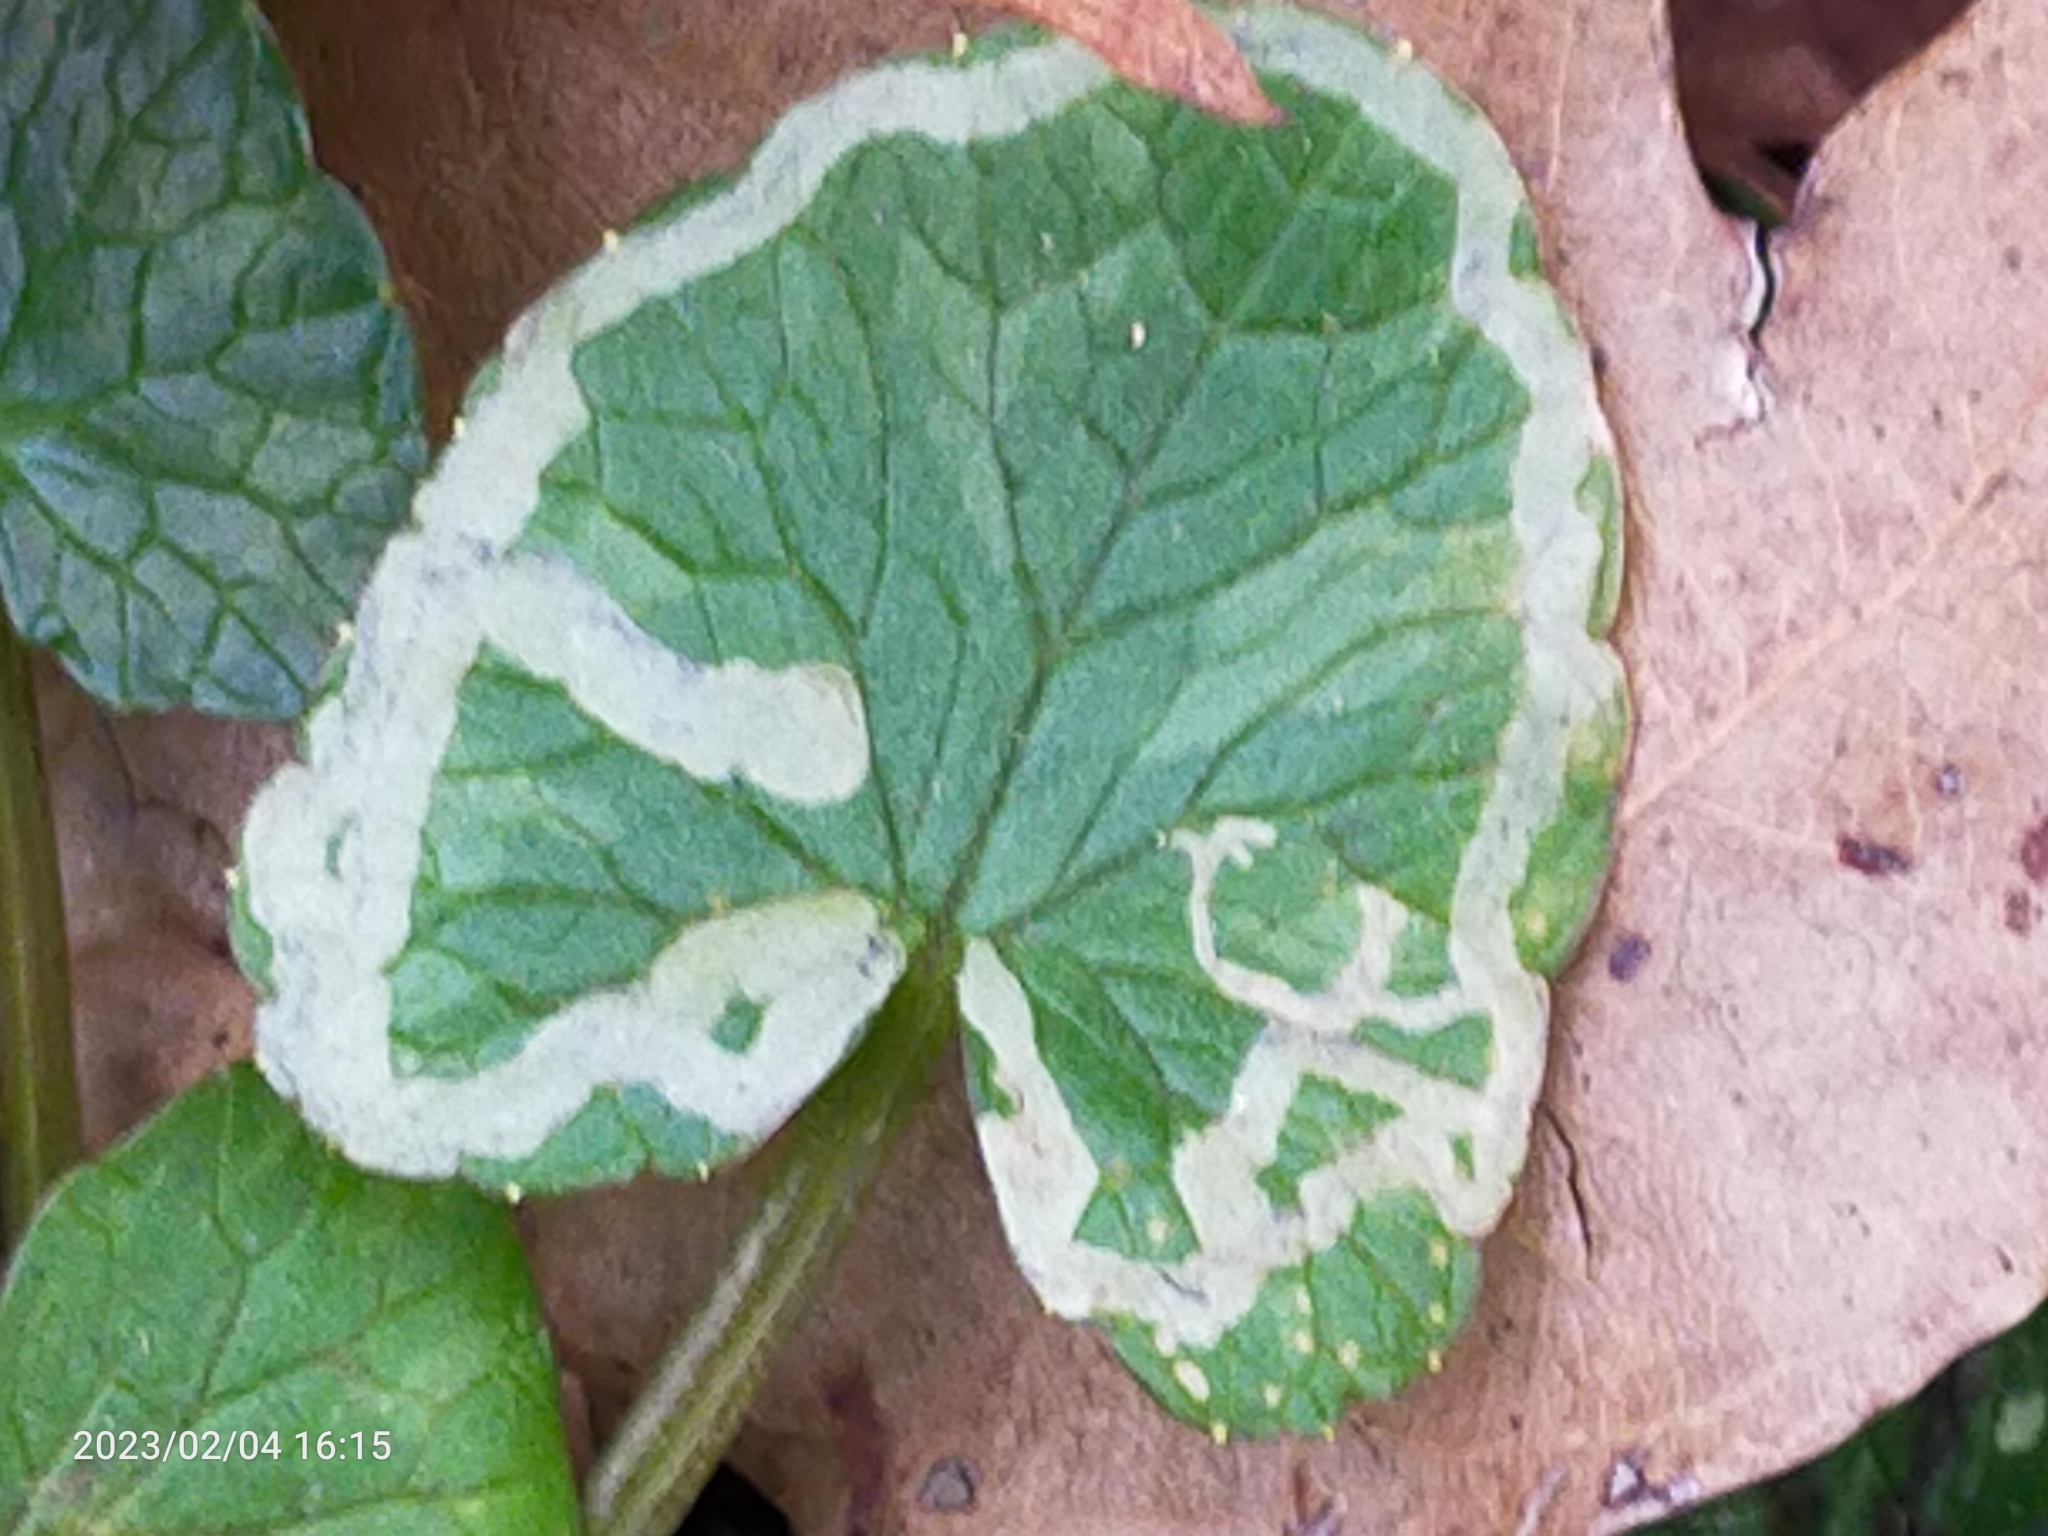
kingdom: Animalia
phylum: Arthropoda
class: Insecta
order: Diptera
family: Agromyzidae
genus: Phytomyza
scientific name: Phytomyza ranunculi
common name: Leaf-miner fly
